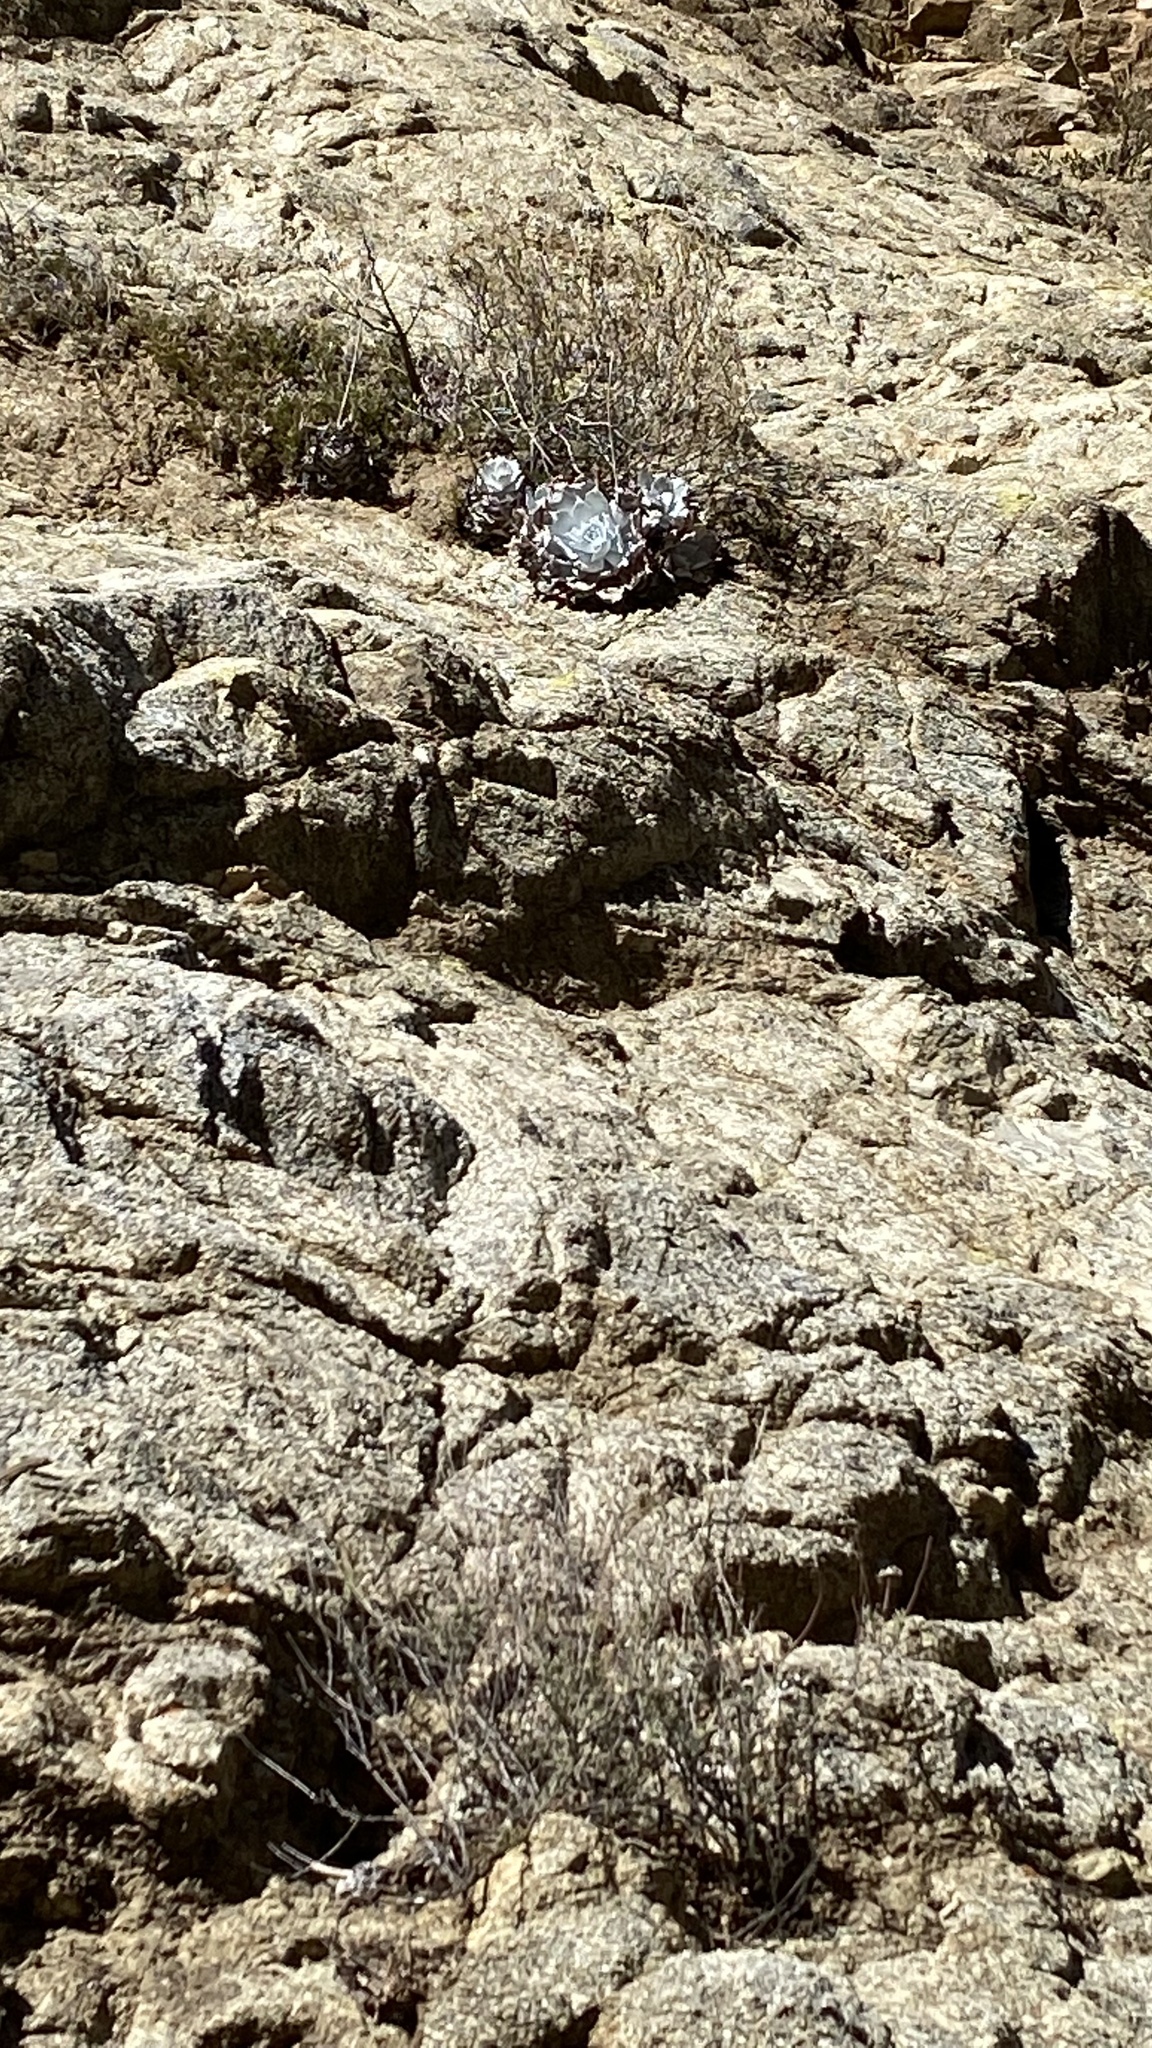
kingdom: Plantae
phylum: Tracheophyta
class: Magnoliopsida
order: Saxifragales
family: Crassulaceae
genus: Dudleya
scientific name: Dudleya pulverulenta
